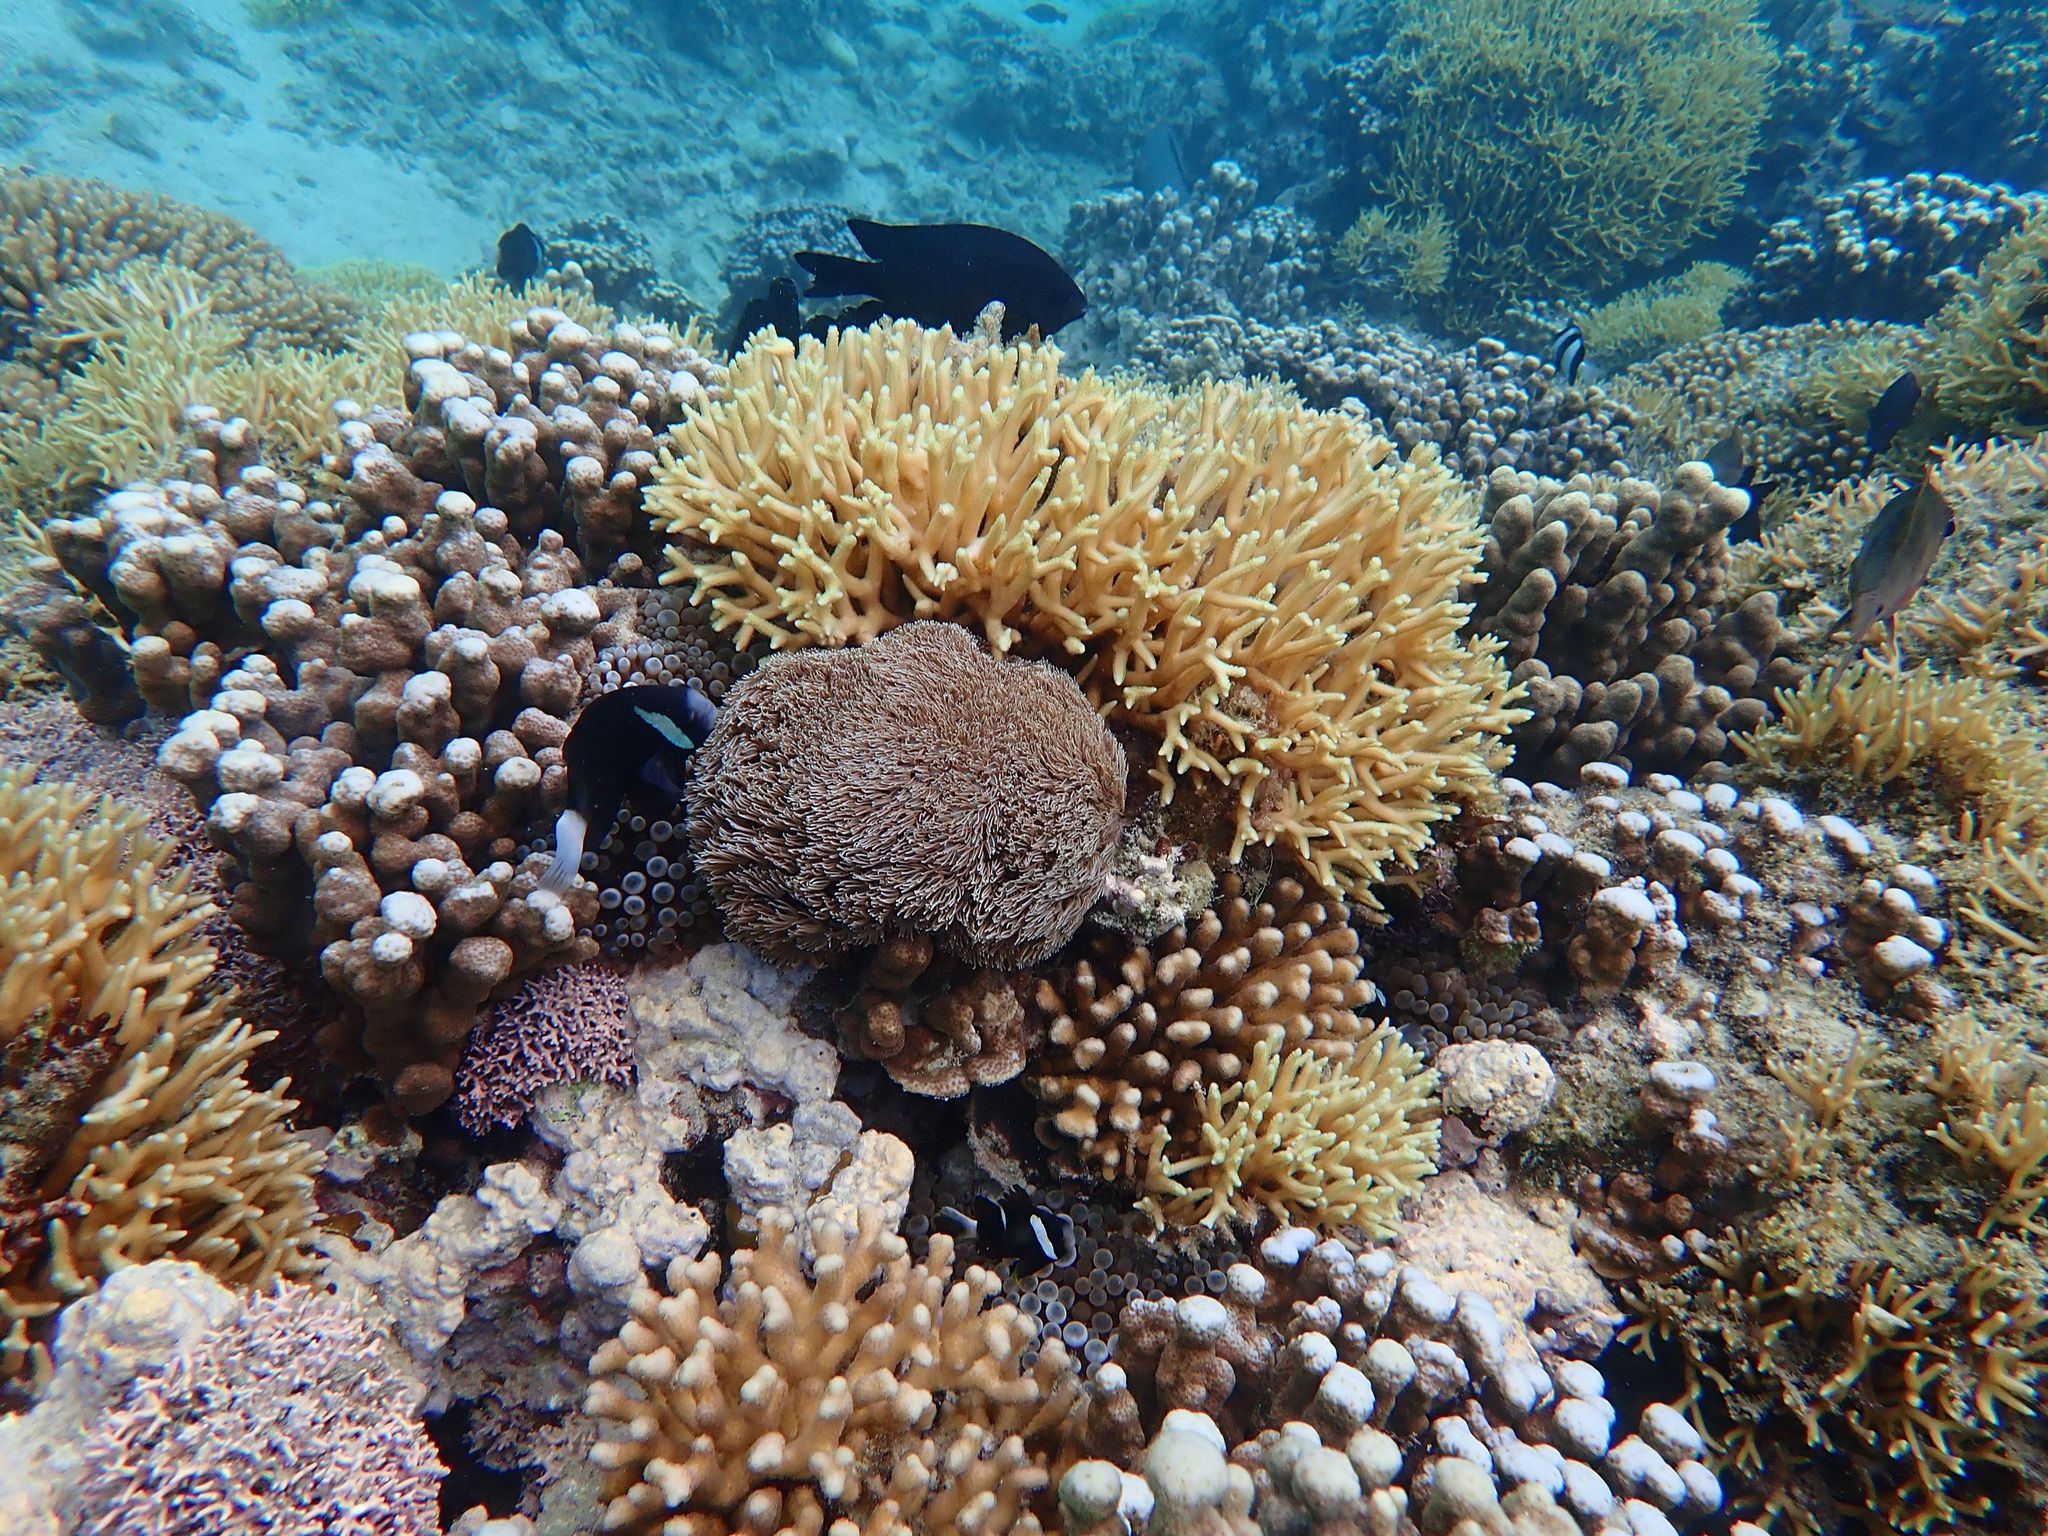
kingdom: Animalia
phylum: Chordata
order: Perciformes
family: Pomacentridae
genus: Amphiprion
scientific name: Amphiprion mccullochi
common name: Mcculloch's anemonefish
